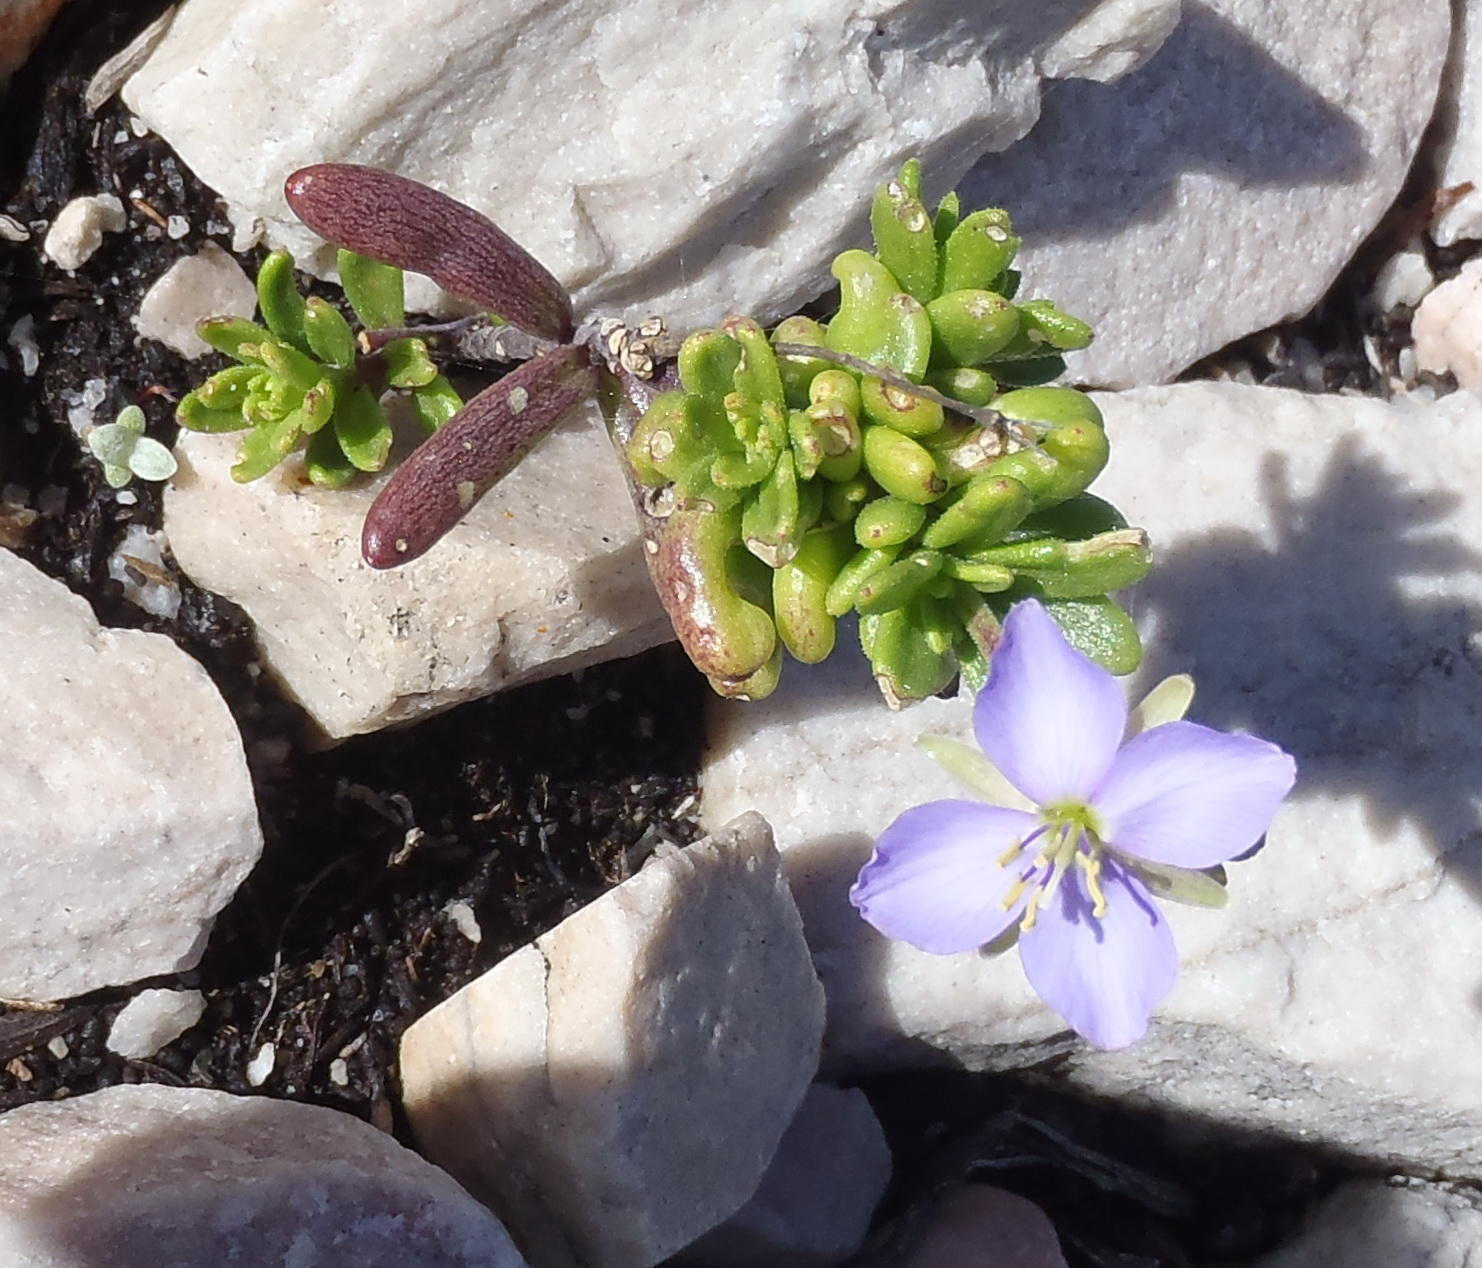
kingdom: Plantae
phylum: Tracheophyta
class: Magnoliopsida
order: Brassicales
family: Brassicaceae
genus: Heliophila
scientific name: Heliophila subulata
